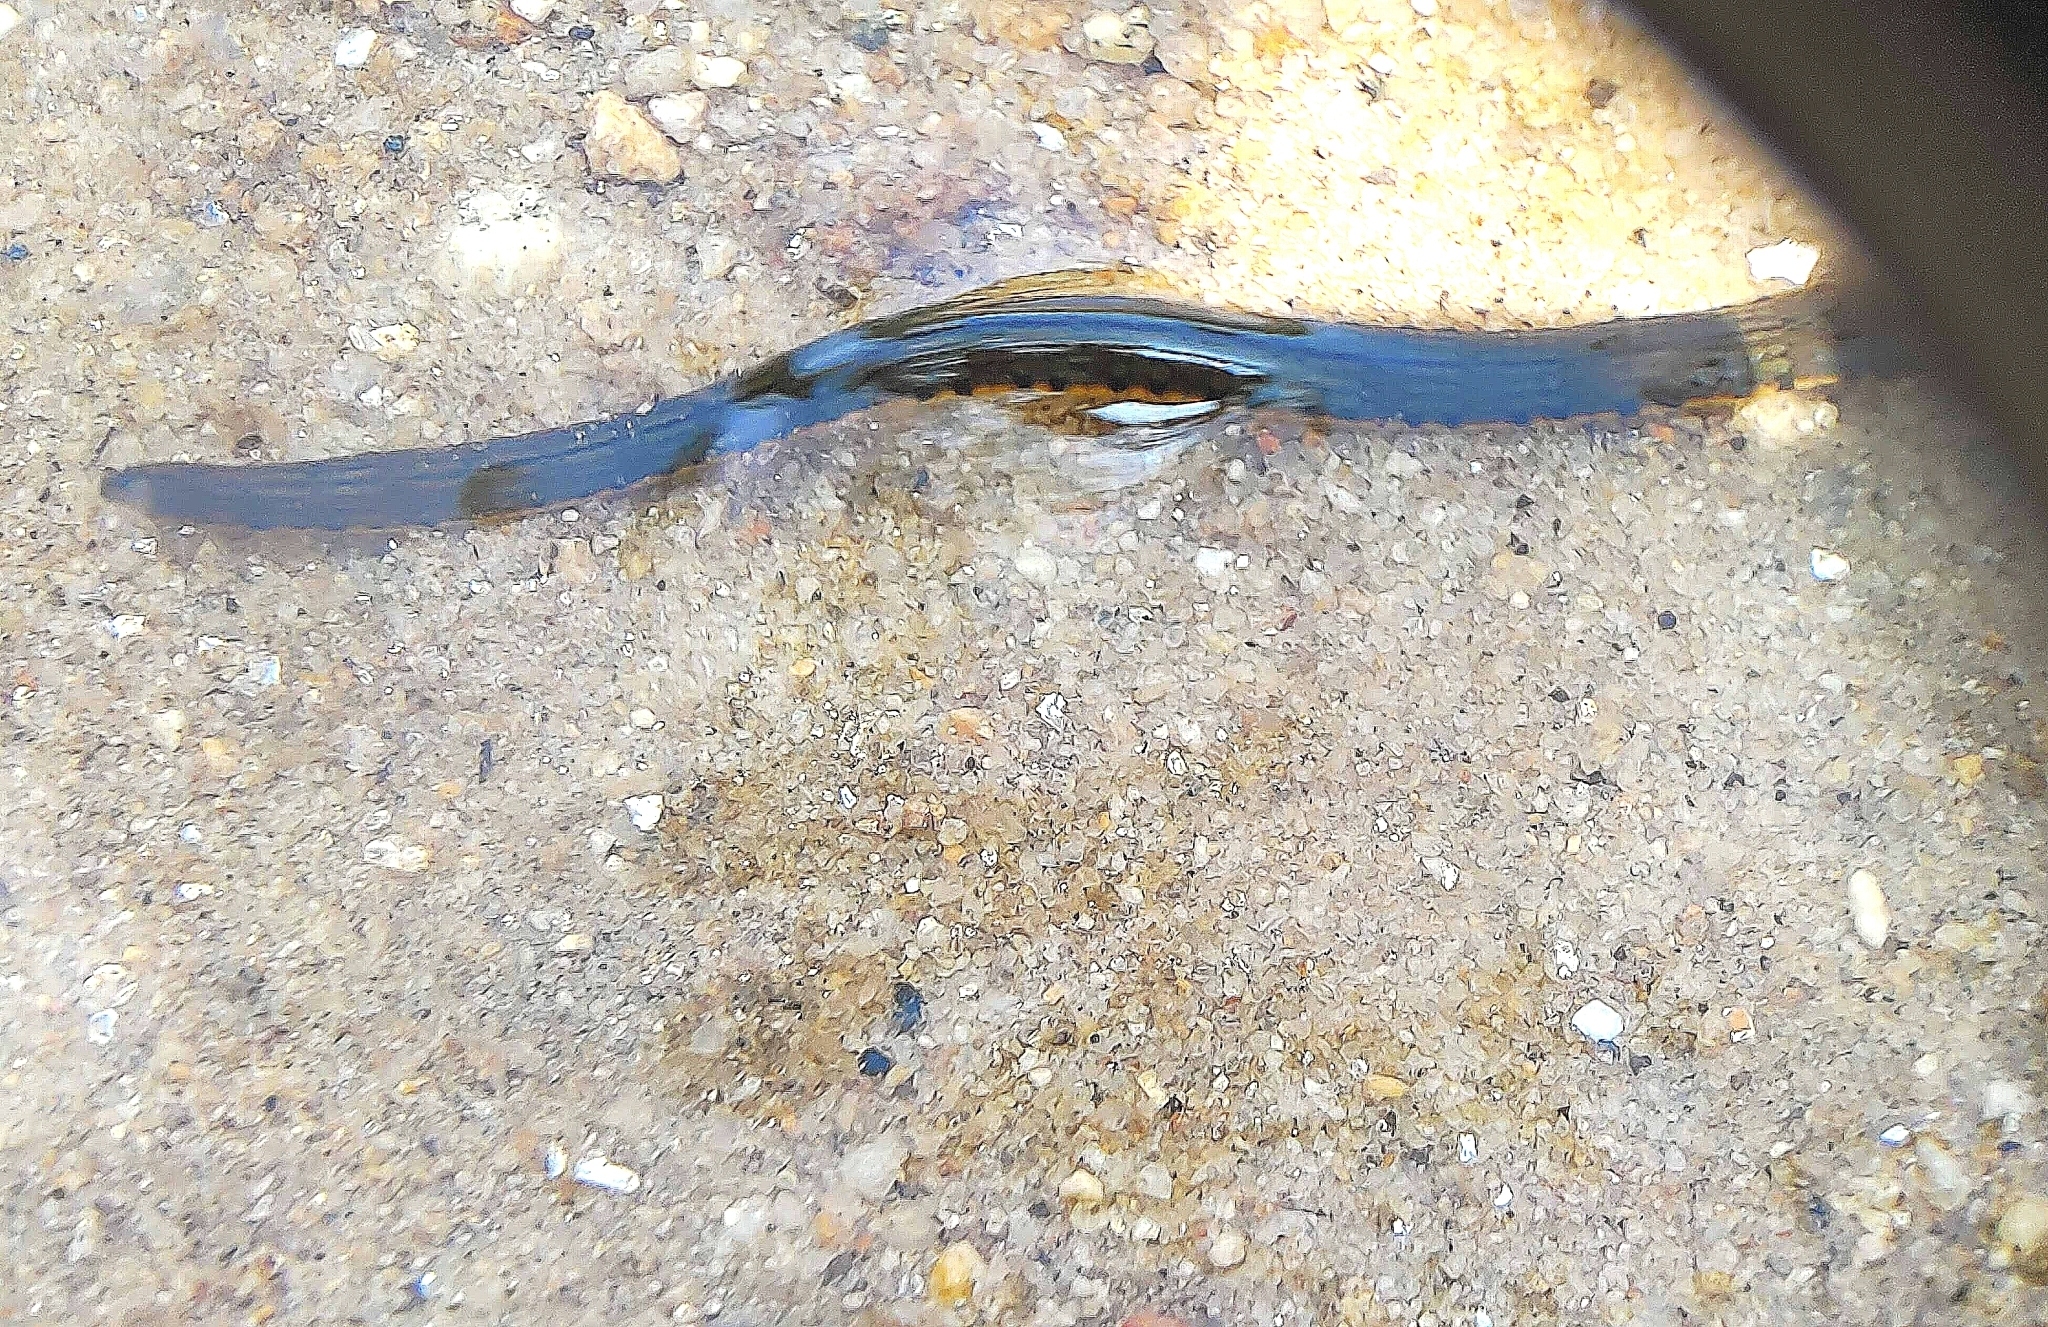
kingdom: Animalia
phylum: Annelida
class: Clitellata
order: Arhynchobdellida
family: Hirudinidae
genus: Hirudinaria
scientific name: Hirudinaria manillensis
